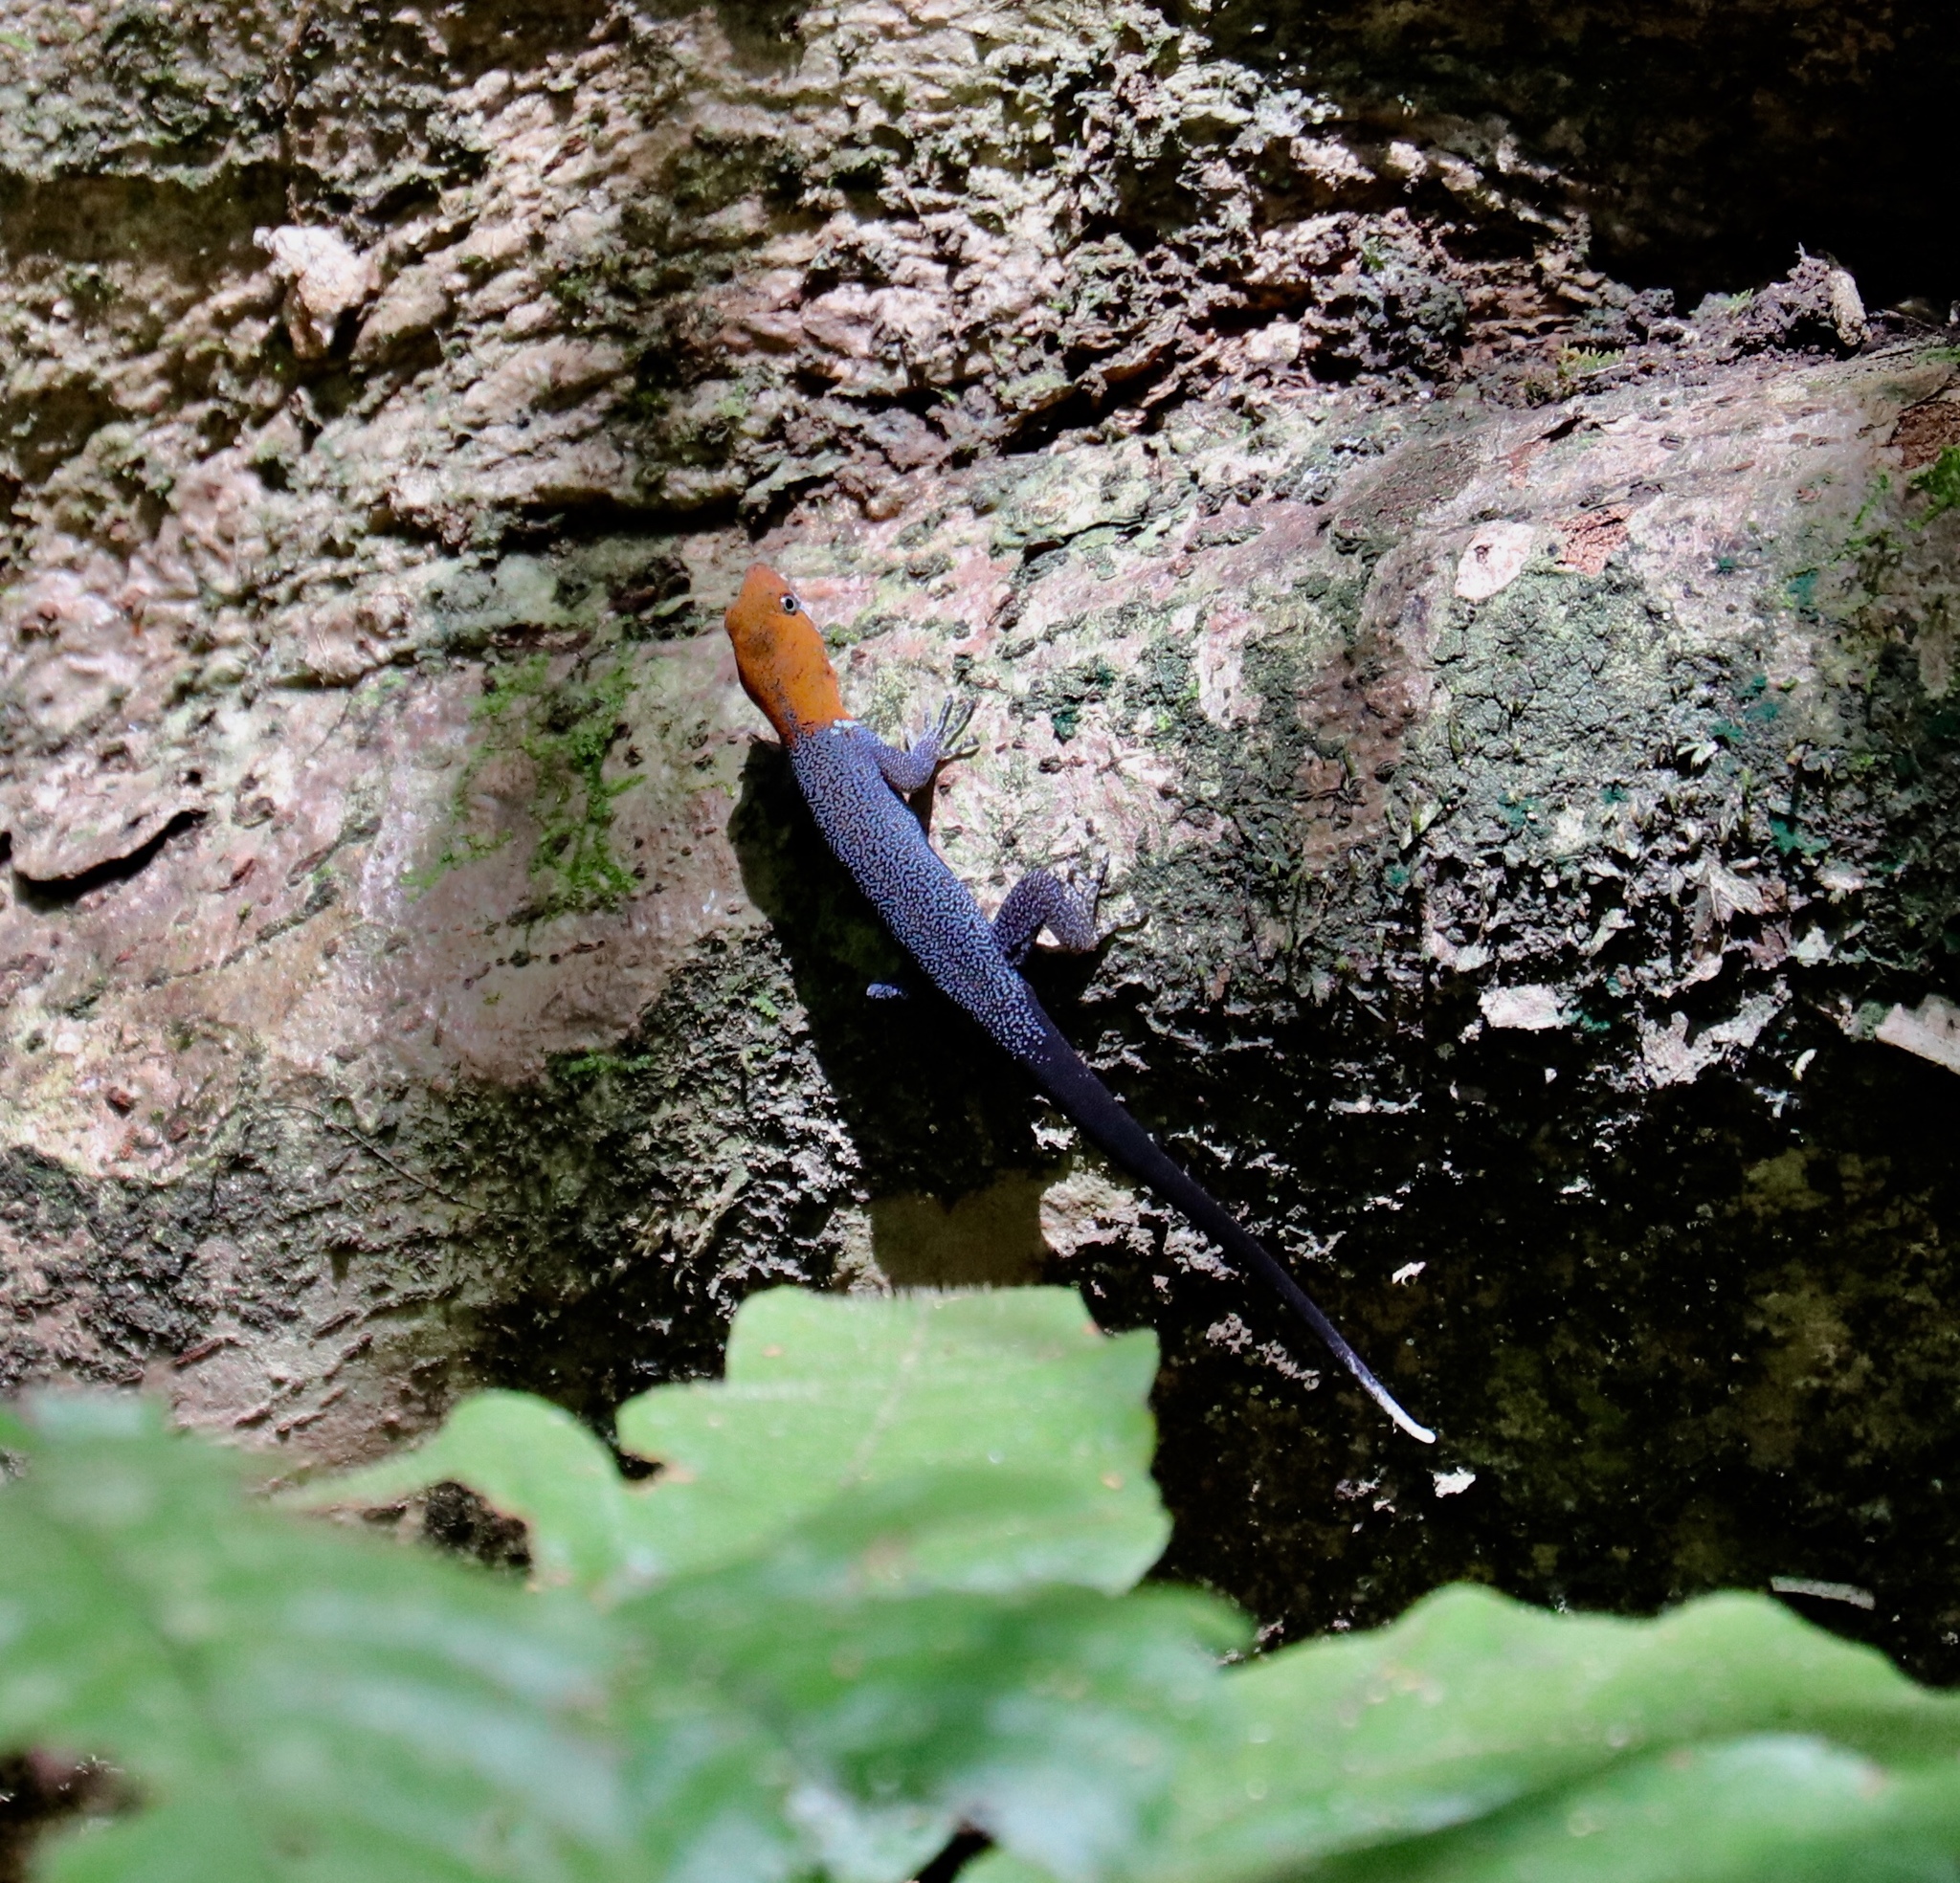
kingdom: Animalia
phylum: Chordata
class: Squamata
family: Sphaerodactylidae
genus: Gonatodes
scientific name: Gonatodes albogularis
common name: Yellow-headed gecko
